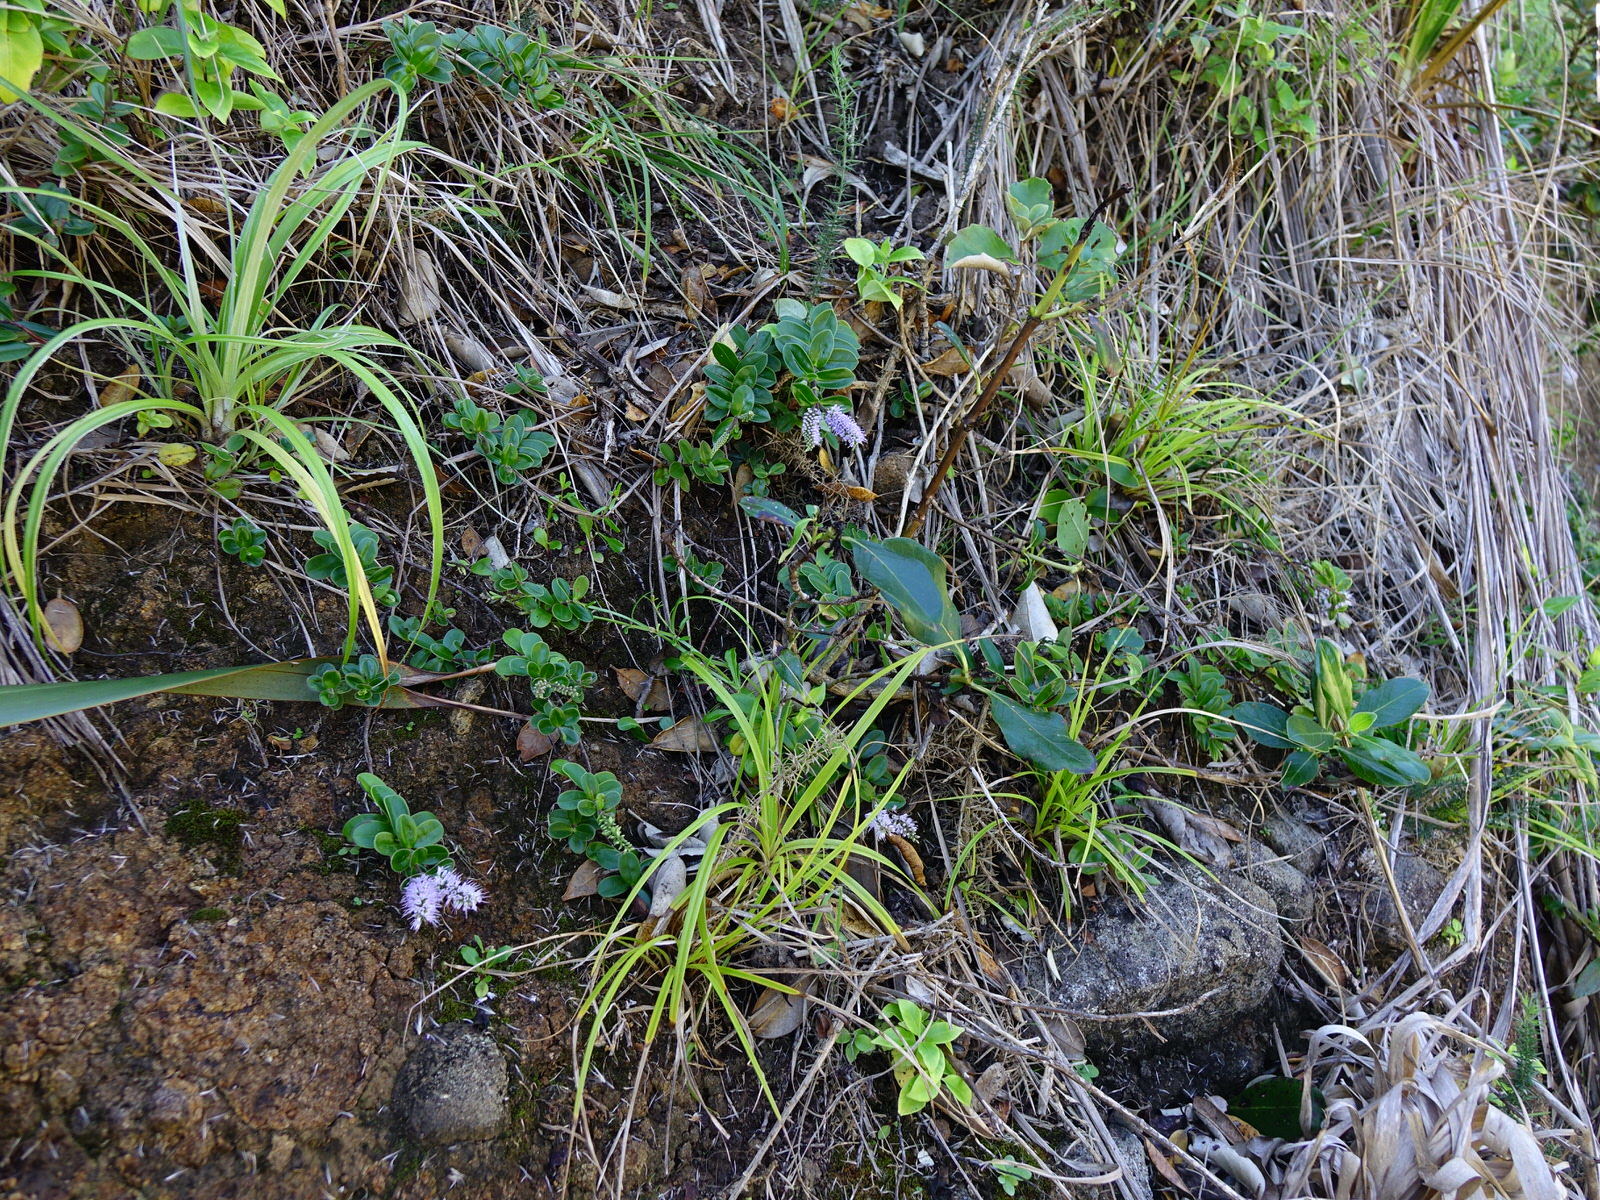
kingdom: Plantae
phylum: Tracheophyta
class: Magnoliopsida
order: Lamiales
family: Plantaginaceae
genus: Veronica
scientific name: Veronica obtusata
